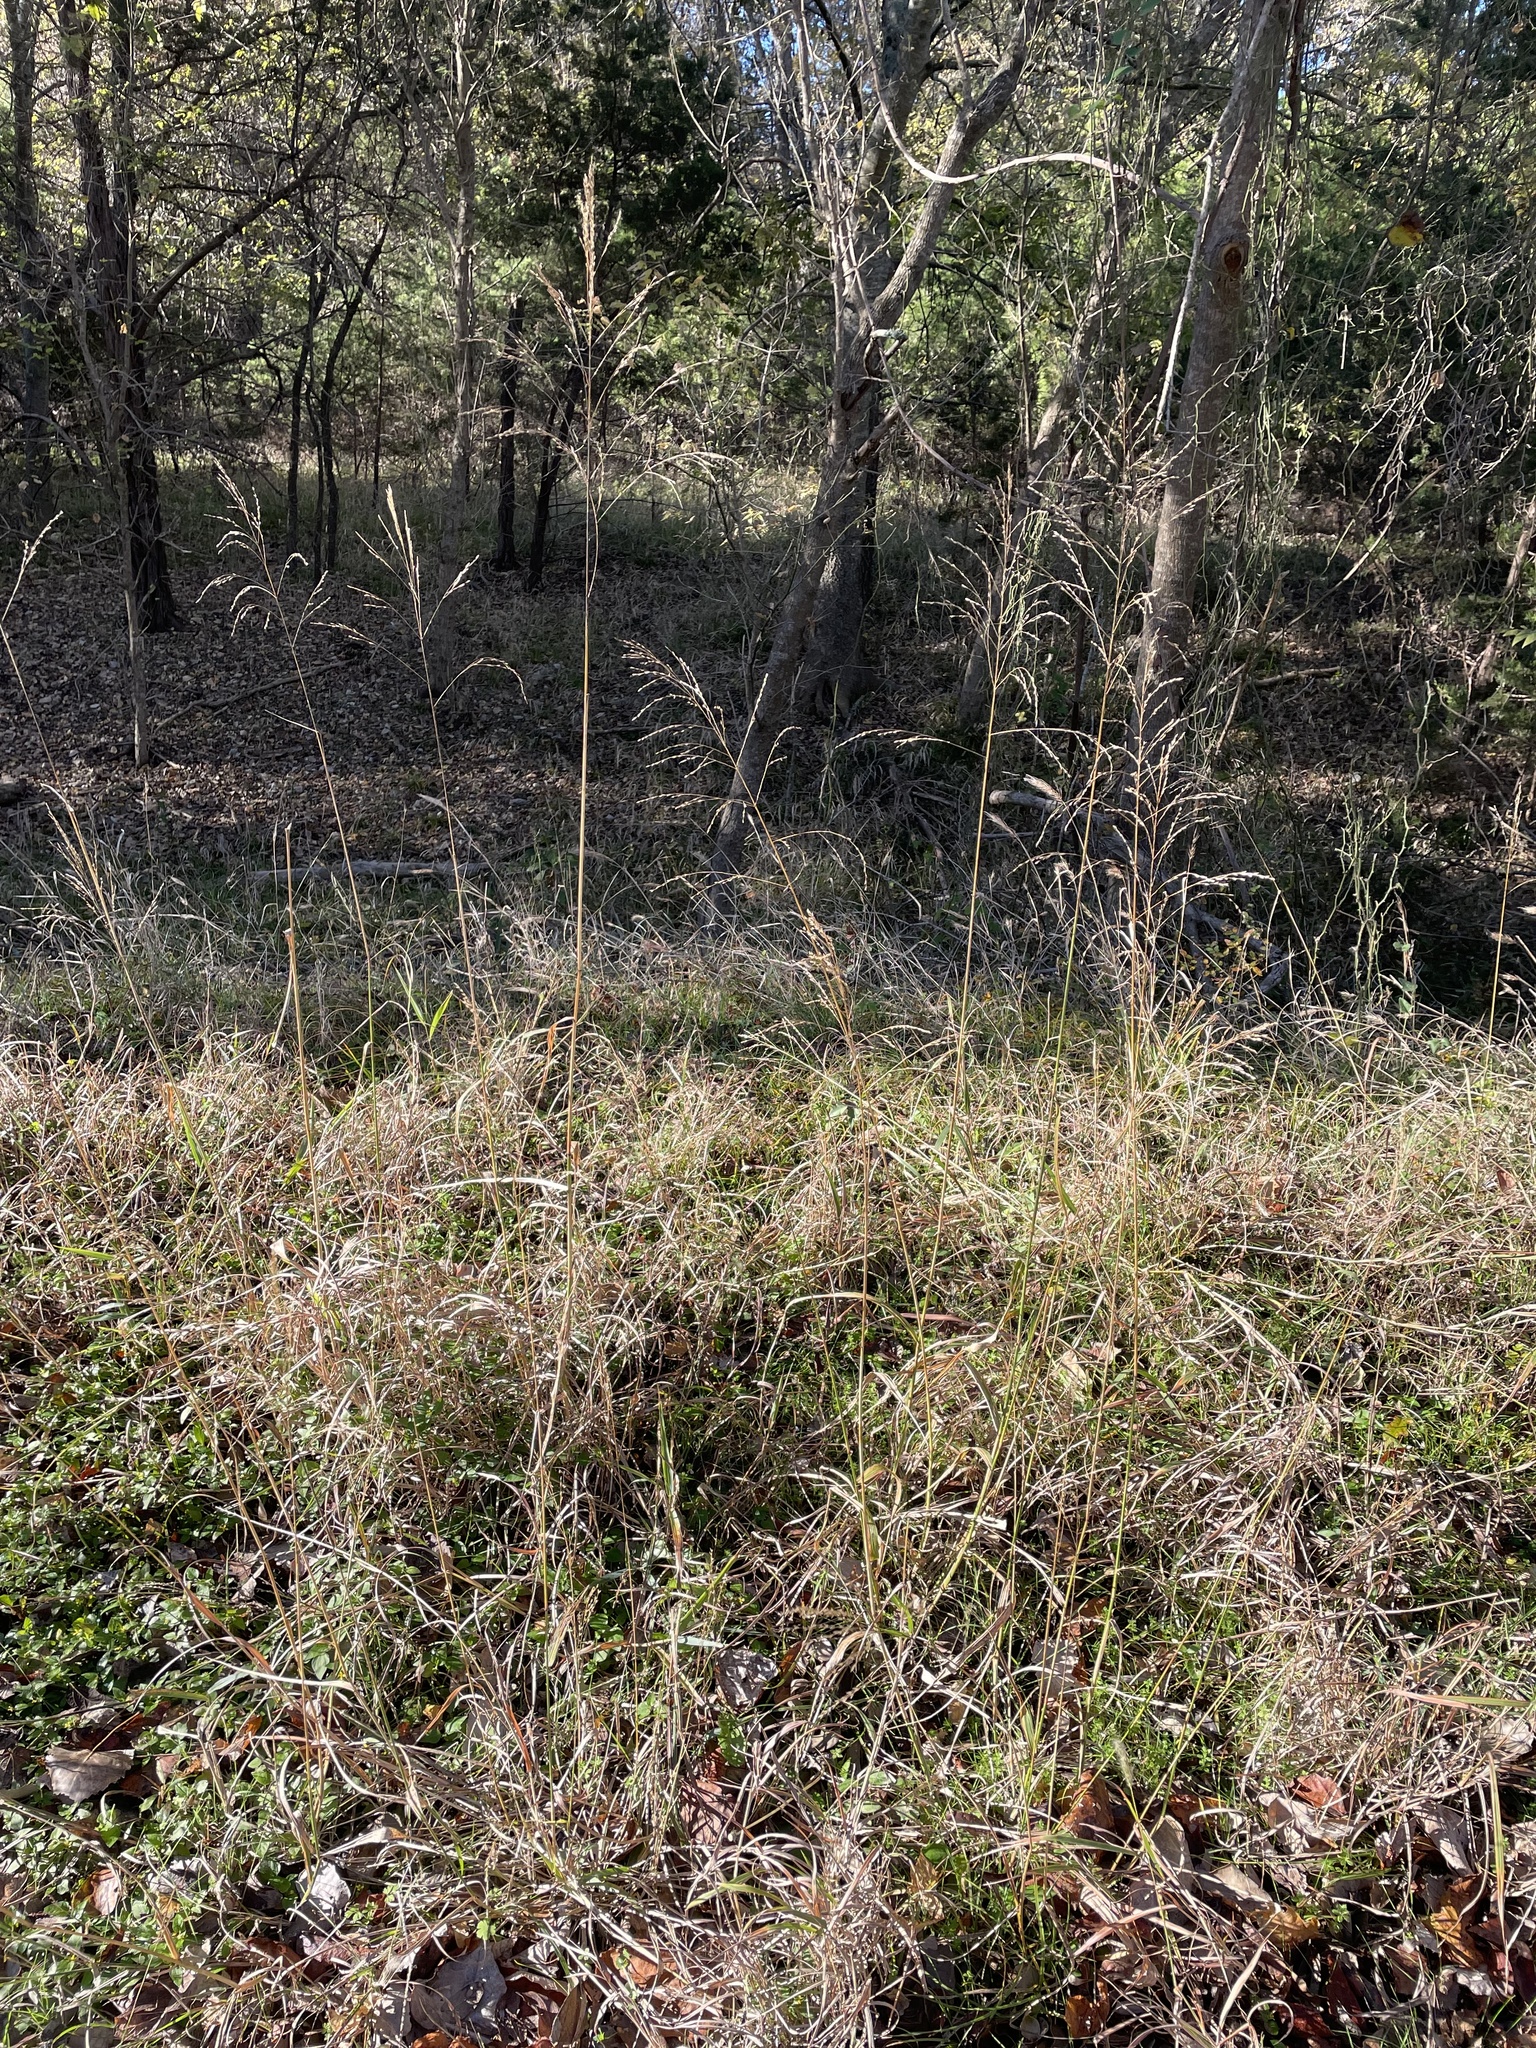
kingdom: Plantae
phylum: Tracheophyta
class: Liliopsida
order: Poales
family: Poaceae
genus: Tridens
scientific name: Tridens flavus
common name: Purpletop
